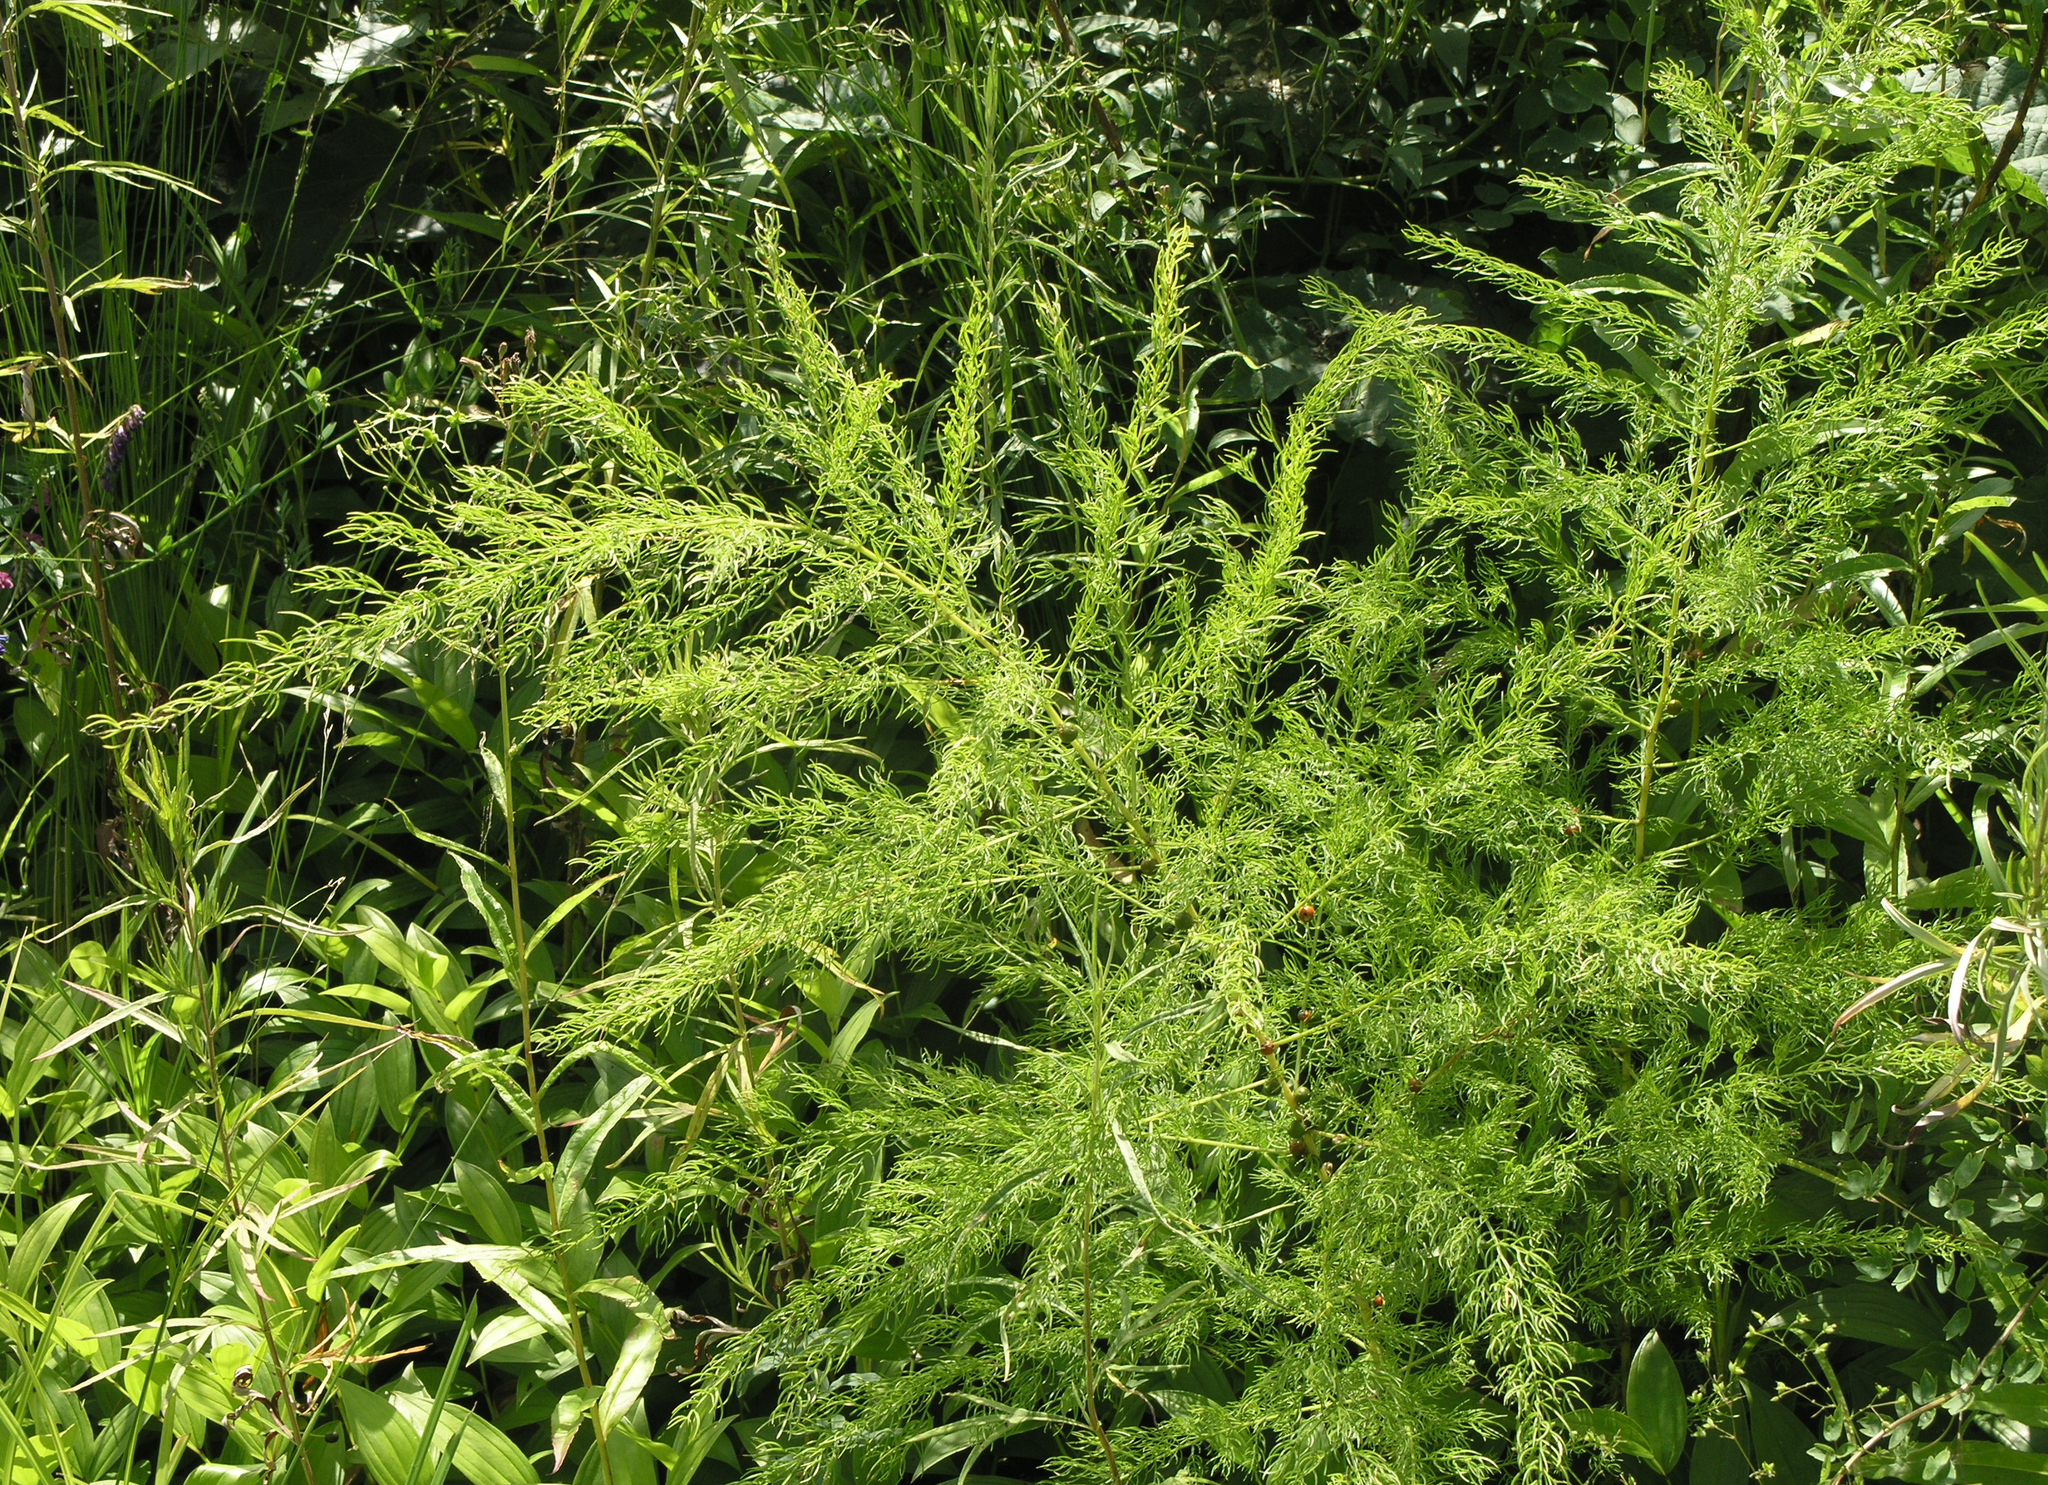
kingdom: Plantae
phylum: Tracheophyta
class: Liliopsida
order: Asparagales
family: Asparagaceae
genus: Asparagus
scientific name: Asparagus schoberioides
